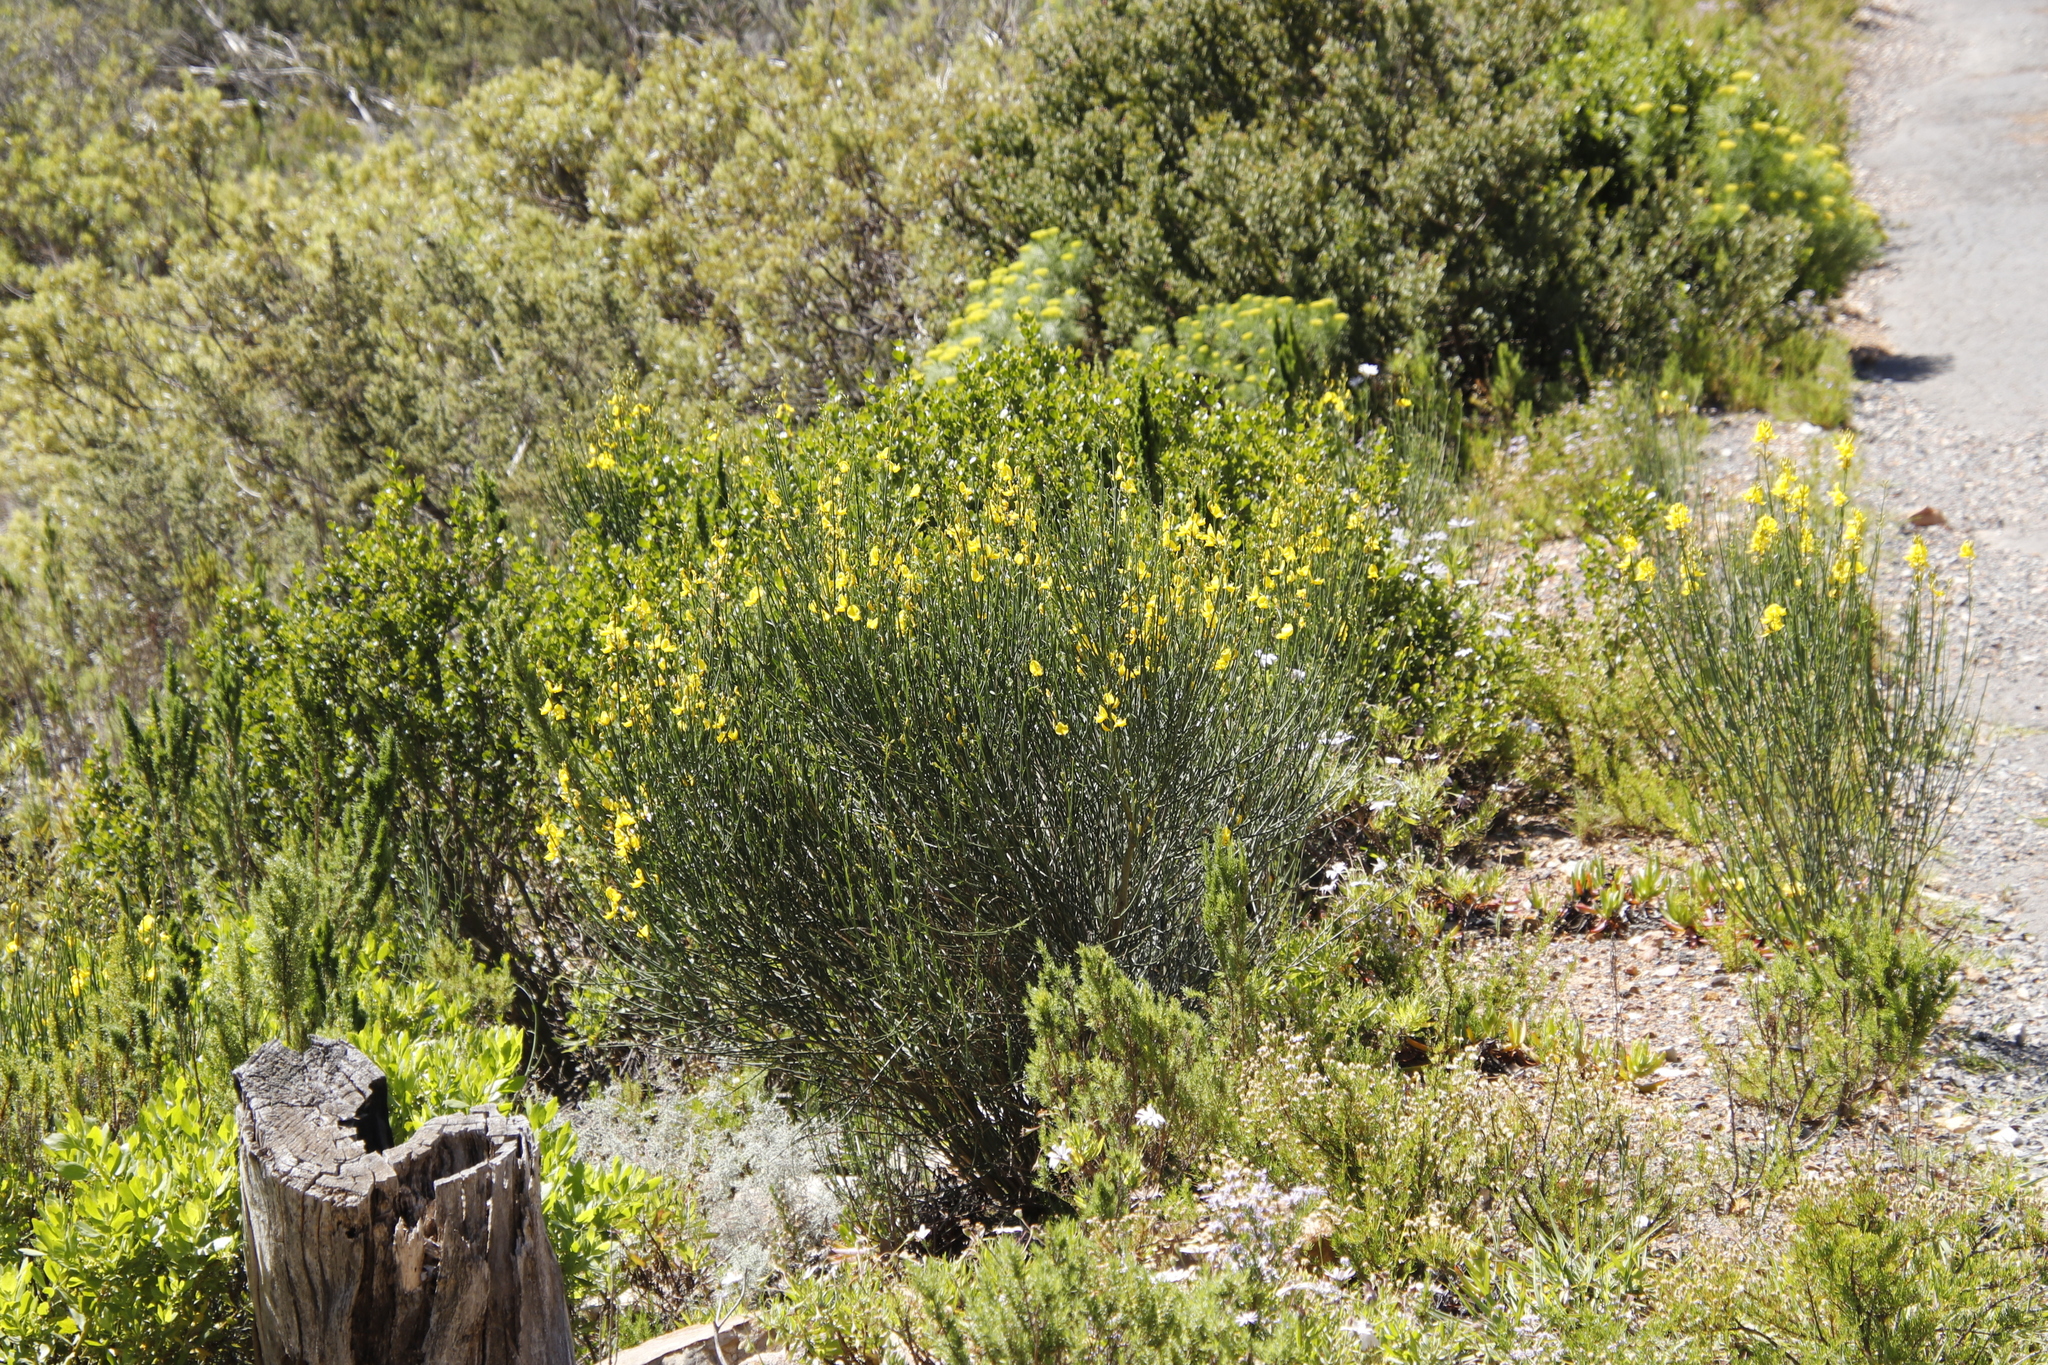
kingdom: Plantae
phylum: Tracheophyta
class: Magnoliopsida
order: Fabales
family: Fabaceae
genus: Spartium
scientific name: Spartium junceum
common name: Spanish broom
